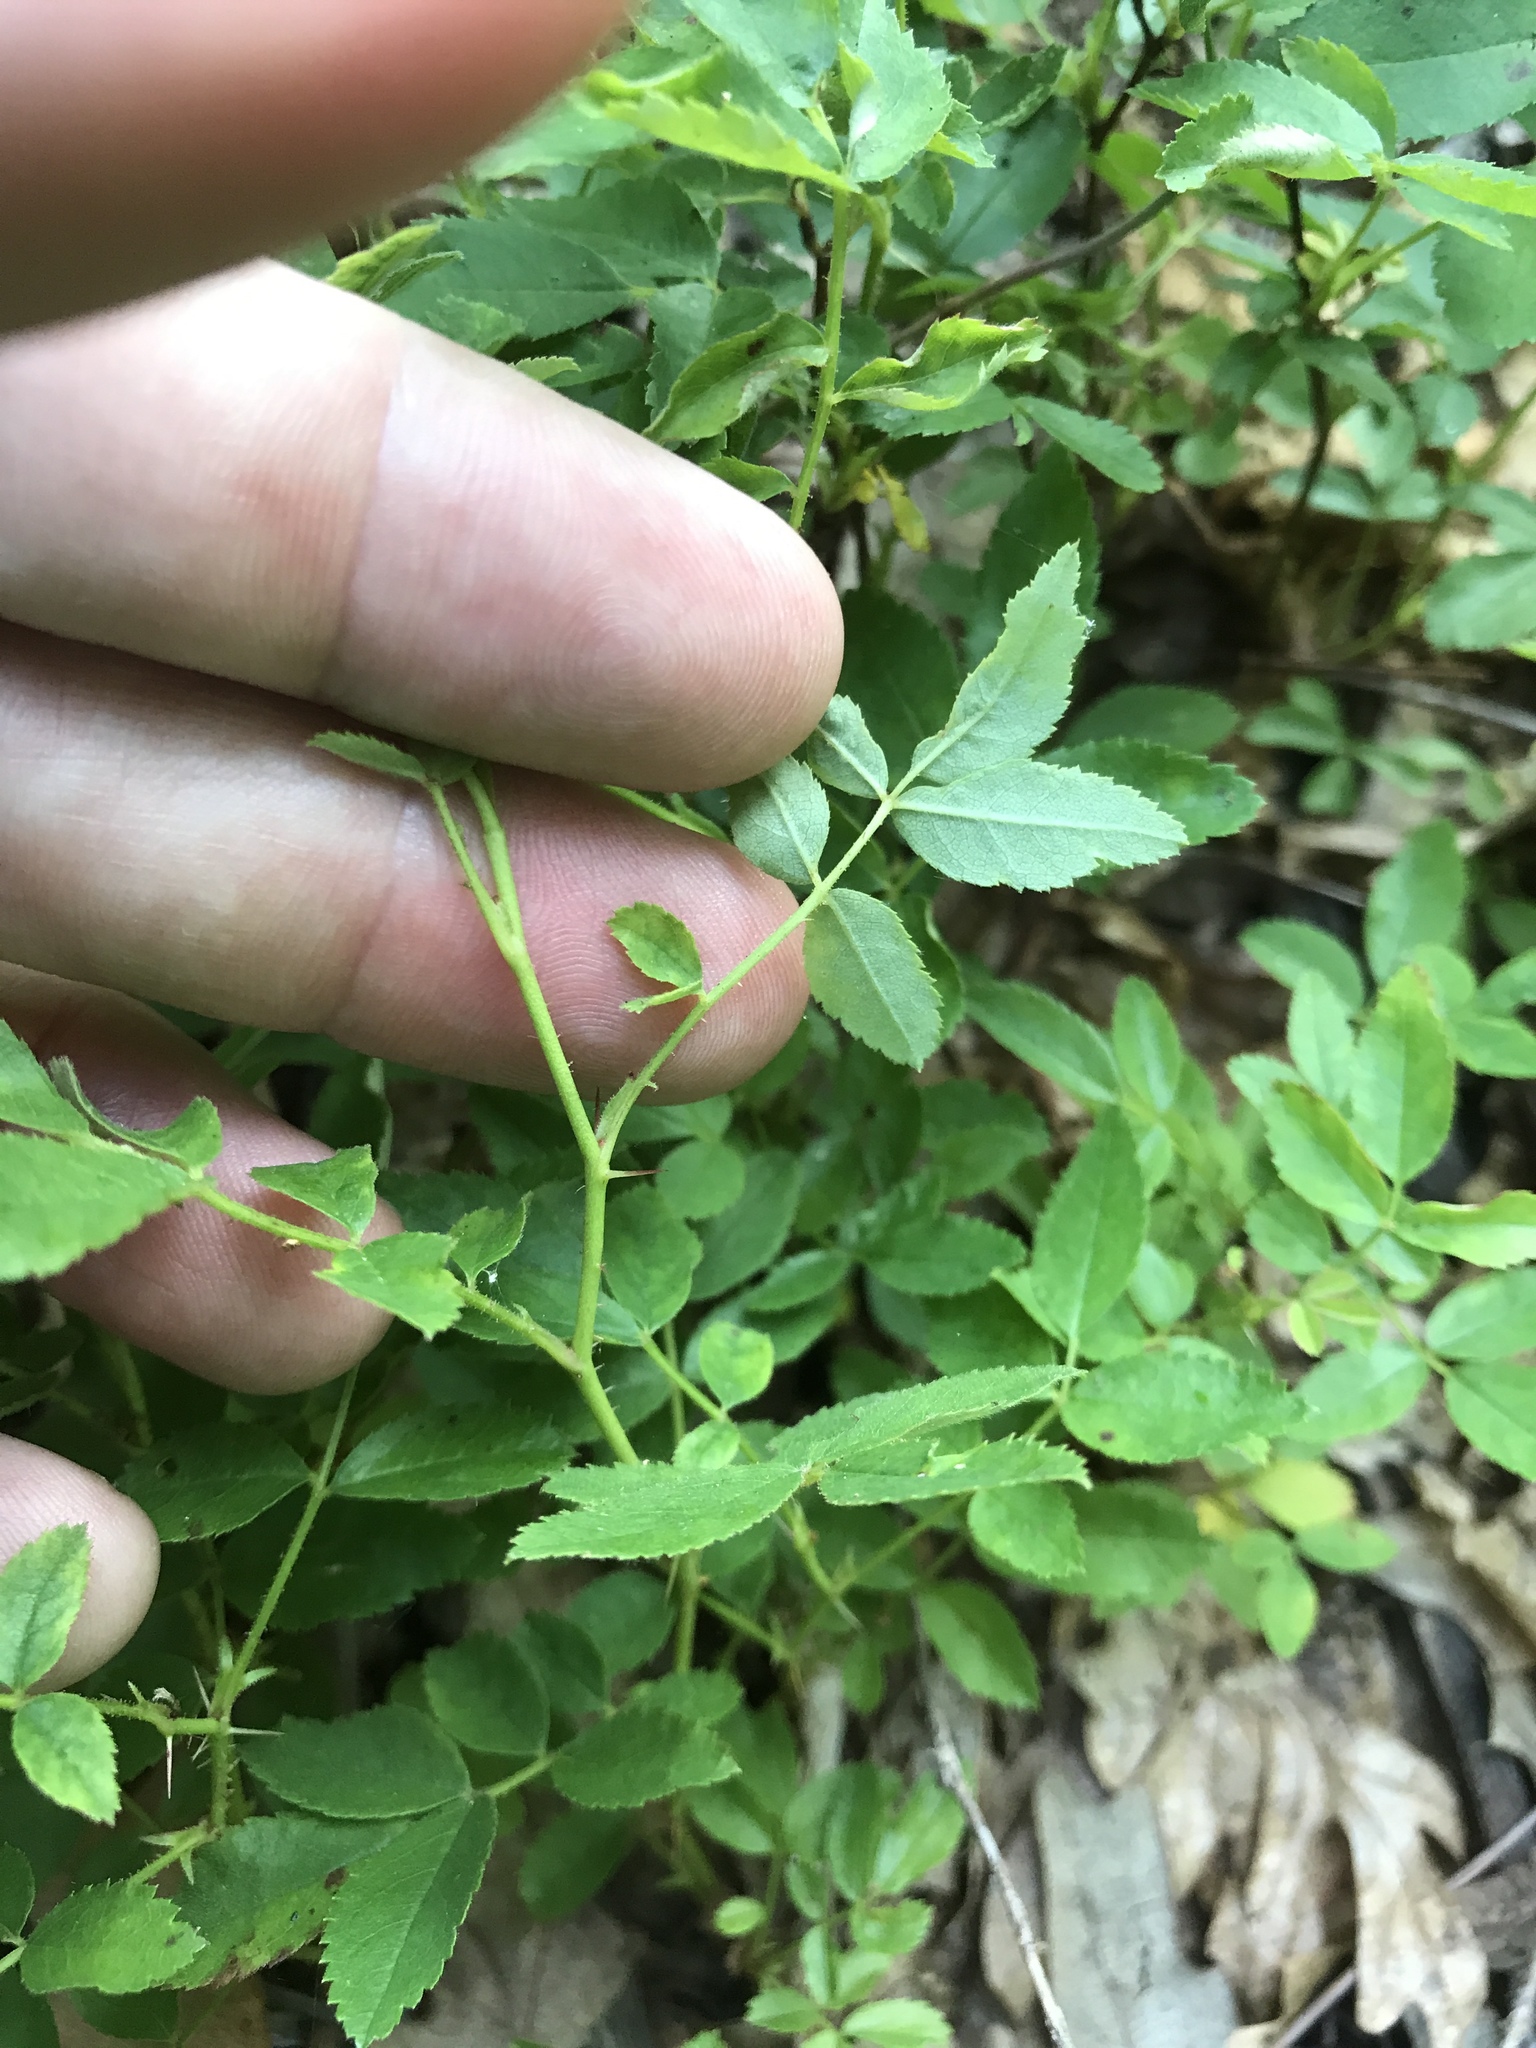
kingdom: Plantae
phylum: Tracheophyta
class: Magnoliopsida
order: Rosales
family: Rosaceae
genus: Rosa
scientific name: Rosa carolina
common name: Pasture rose
